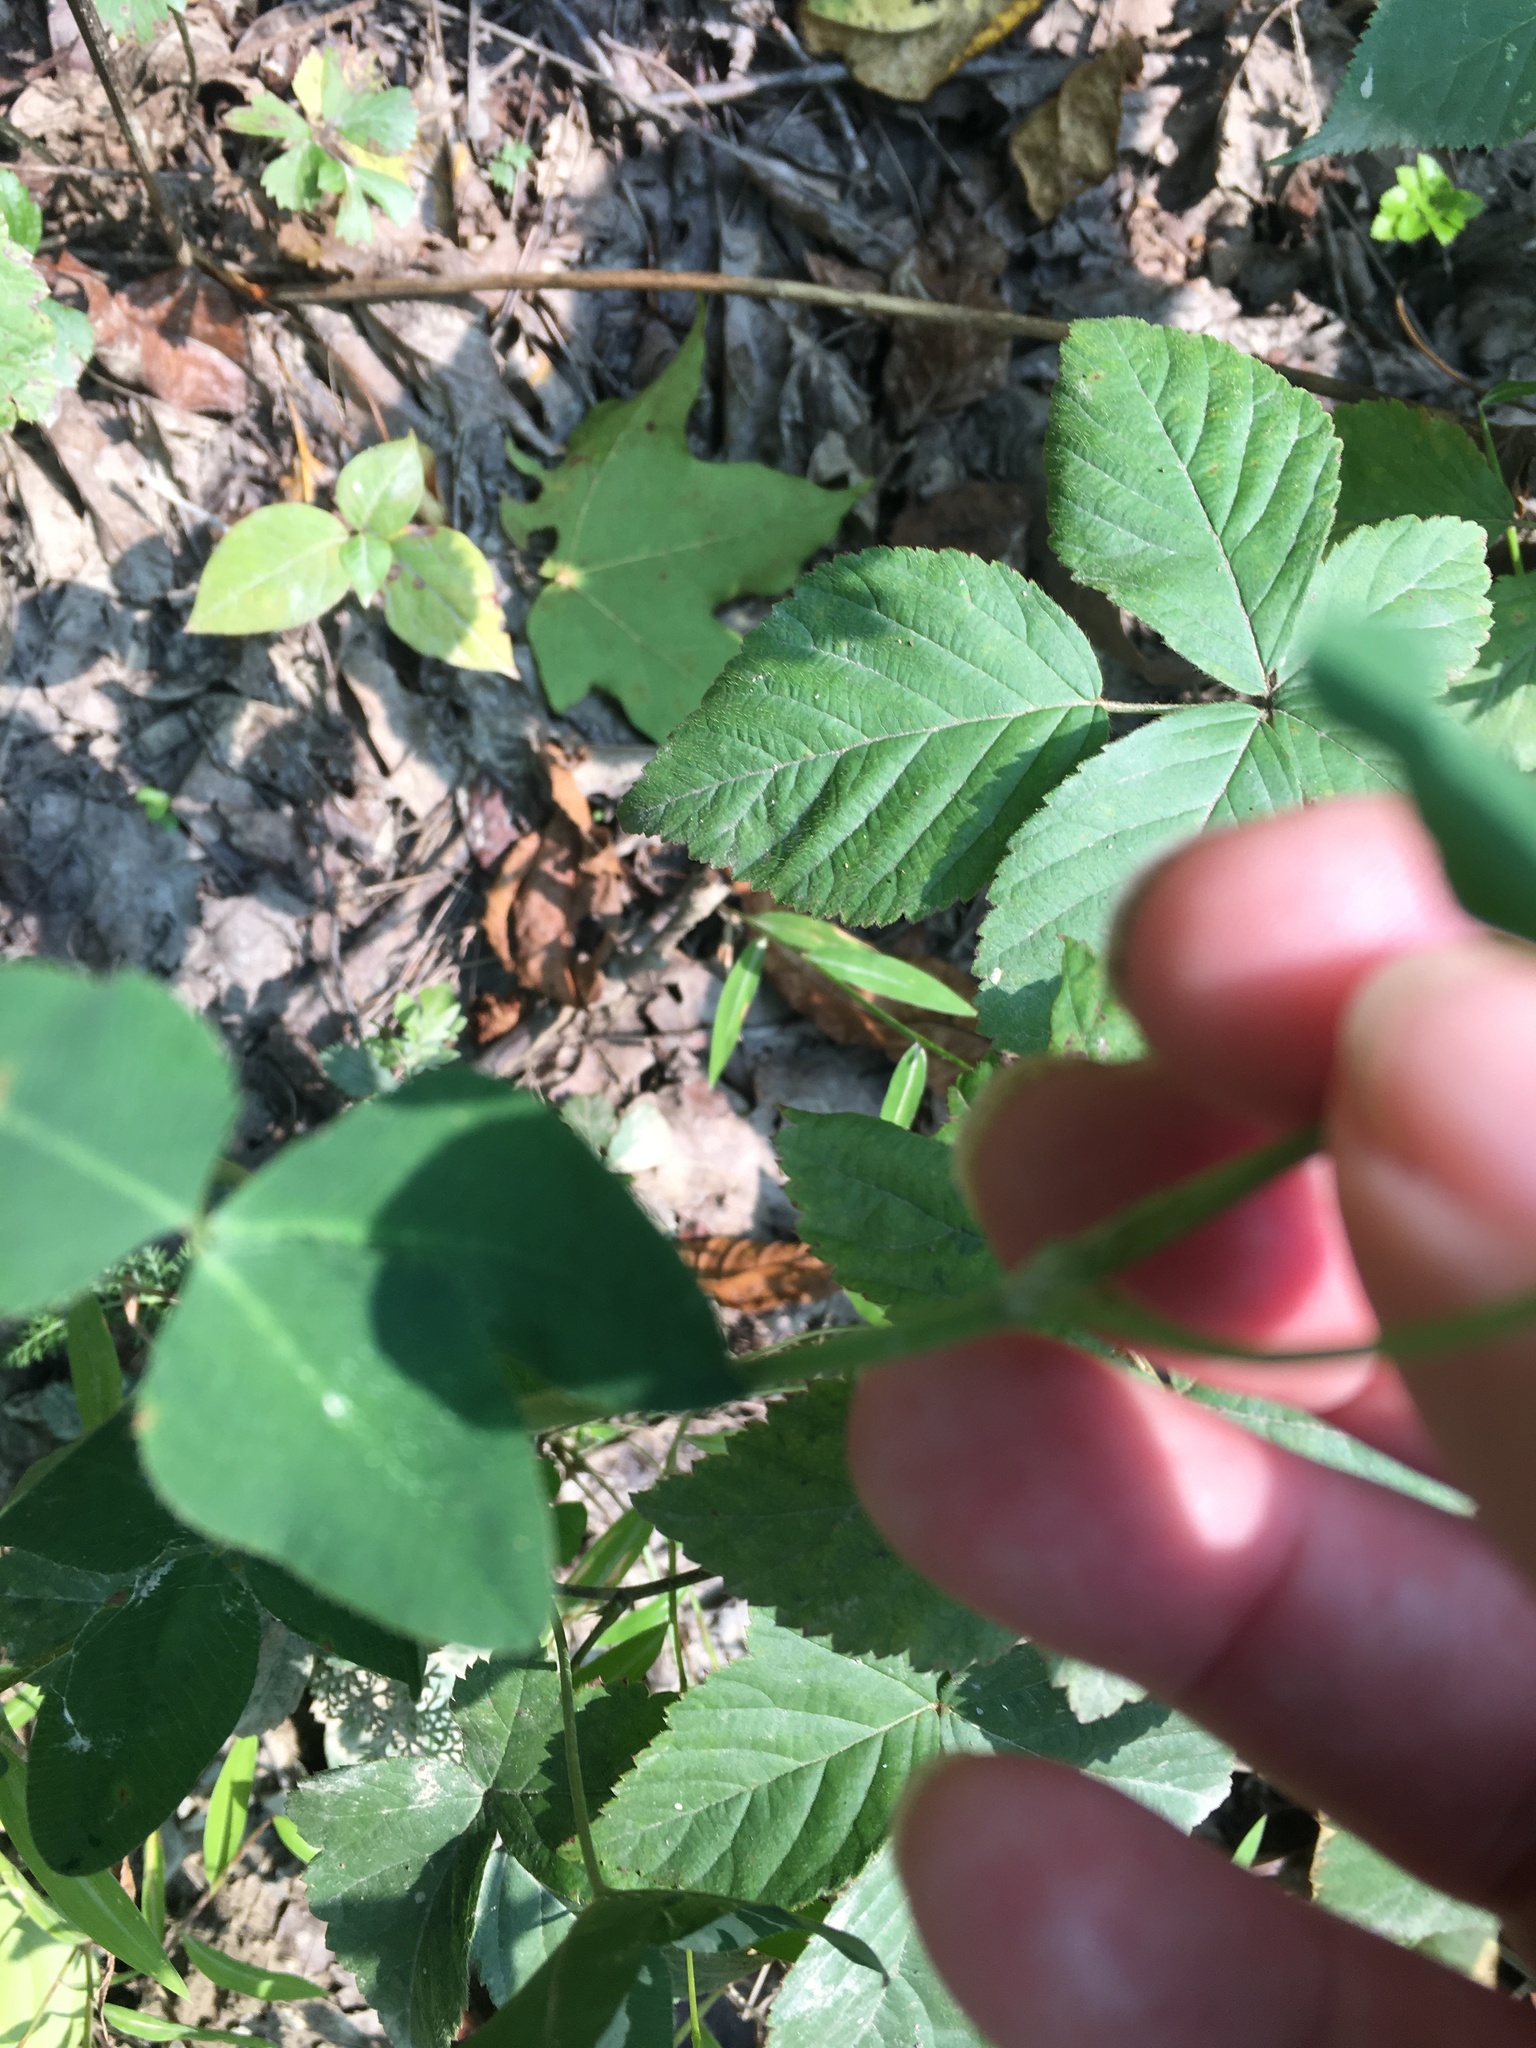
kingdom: Plantae
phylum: Tracheophyta
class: Magnoliopsida
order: Fabales
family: Fabaceae
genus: Trifolium
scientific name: Trifolium hybridum
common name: Alsike clover
